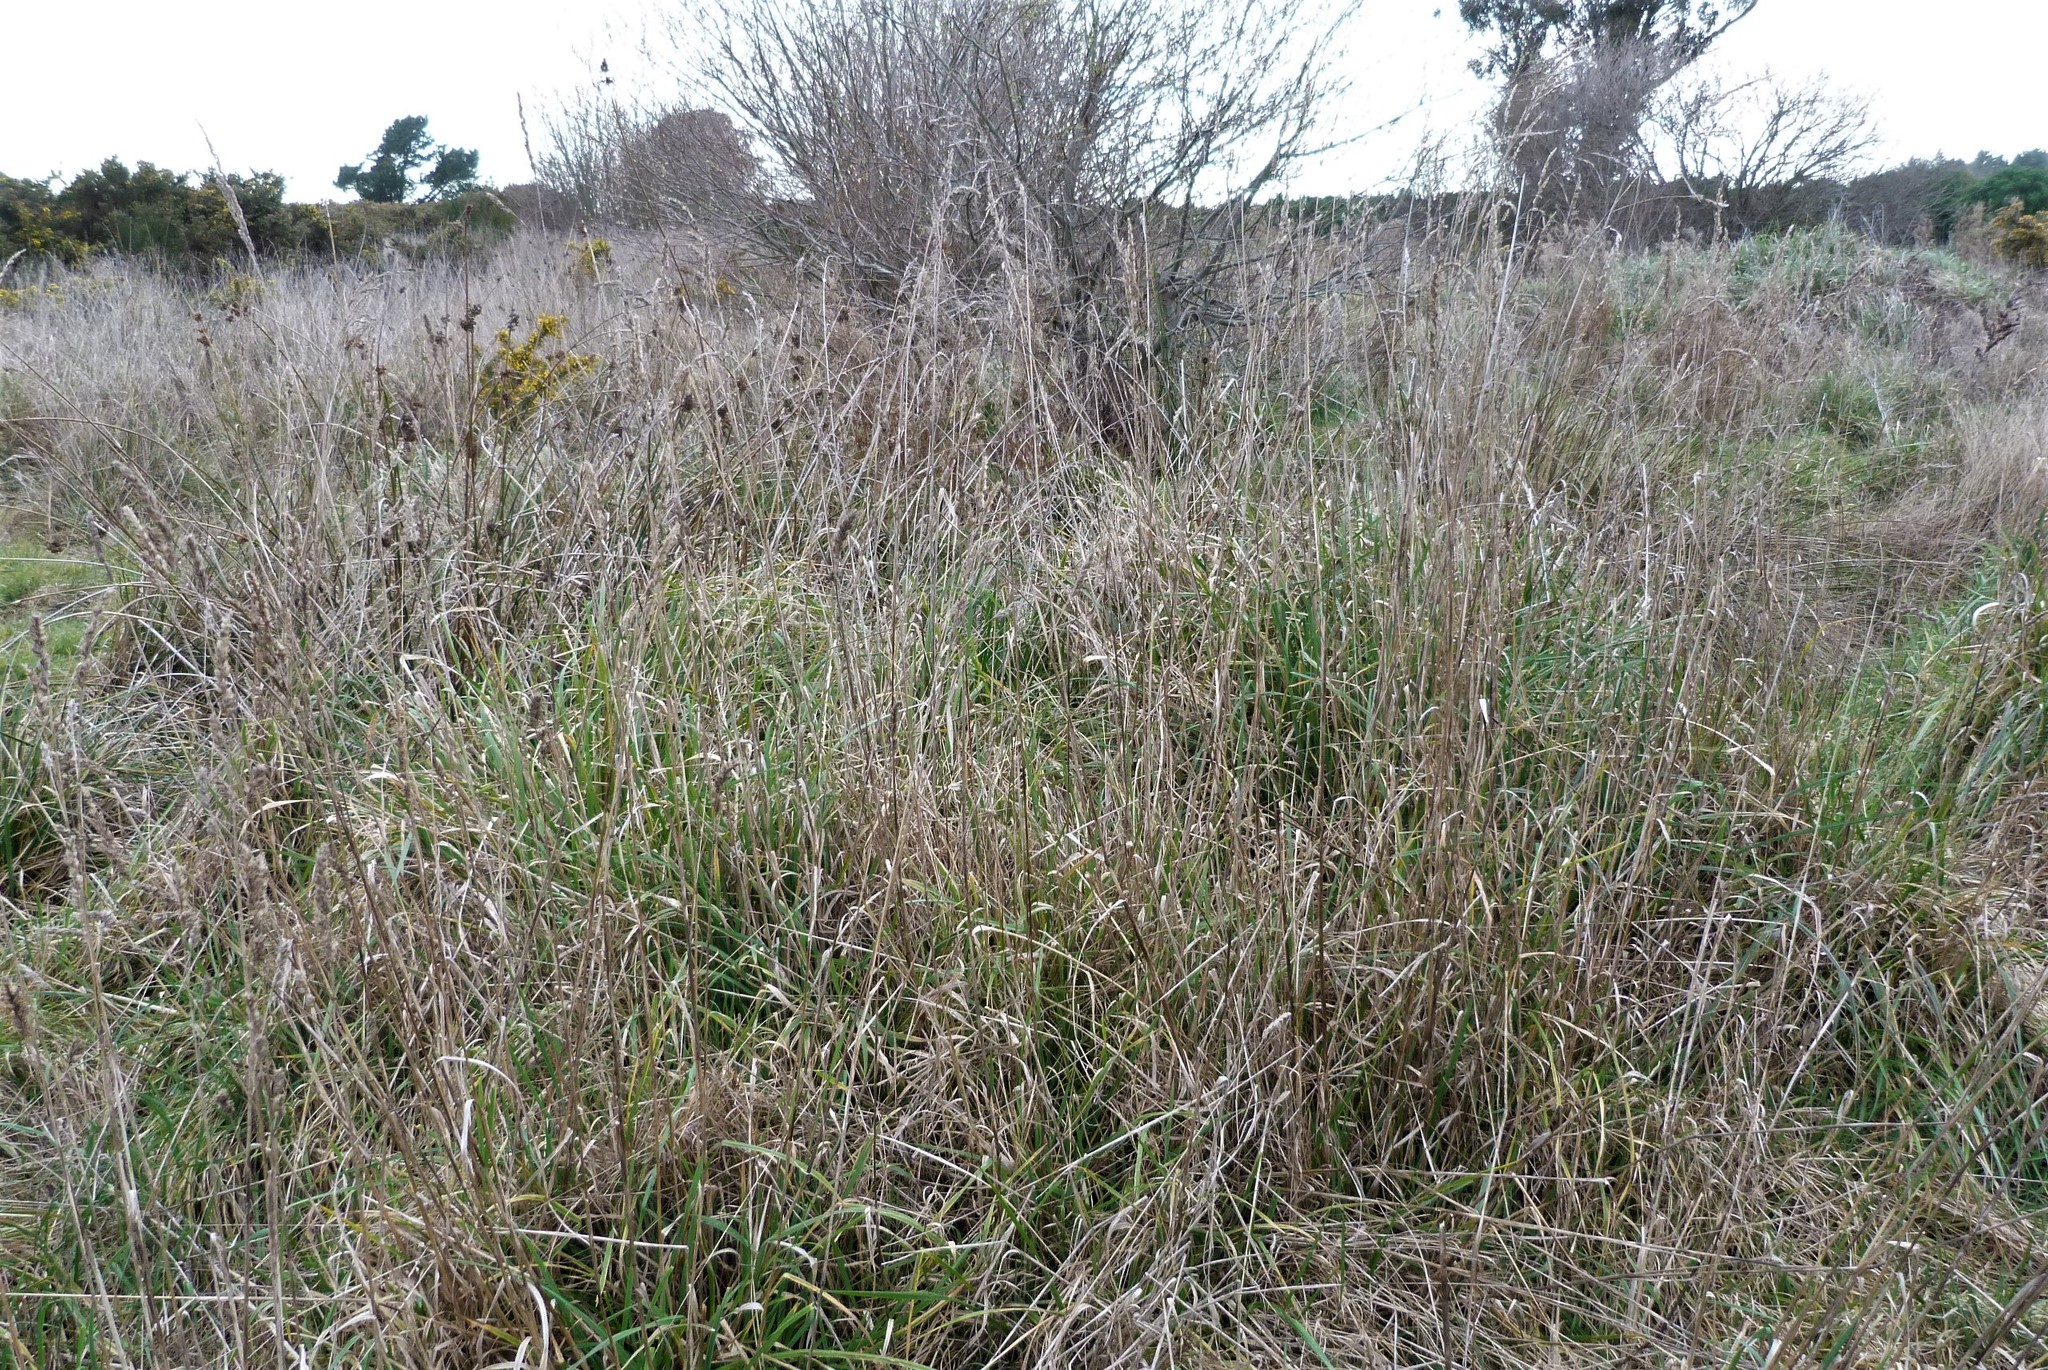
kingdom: Plantae
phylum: Tracheophyta
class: Liliopsida
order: Poales
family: Poaceae
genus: Dactylis
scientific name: Dactylis glomerata
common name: Orchardgrass
